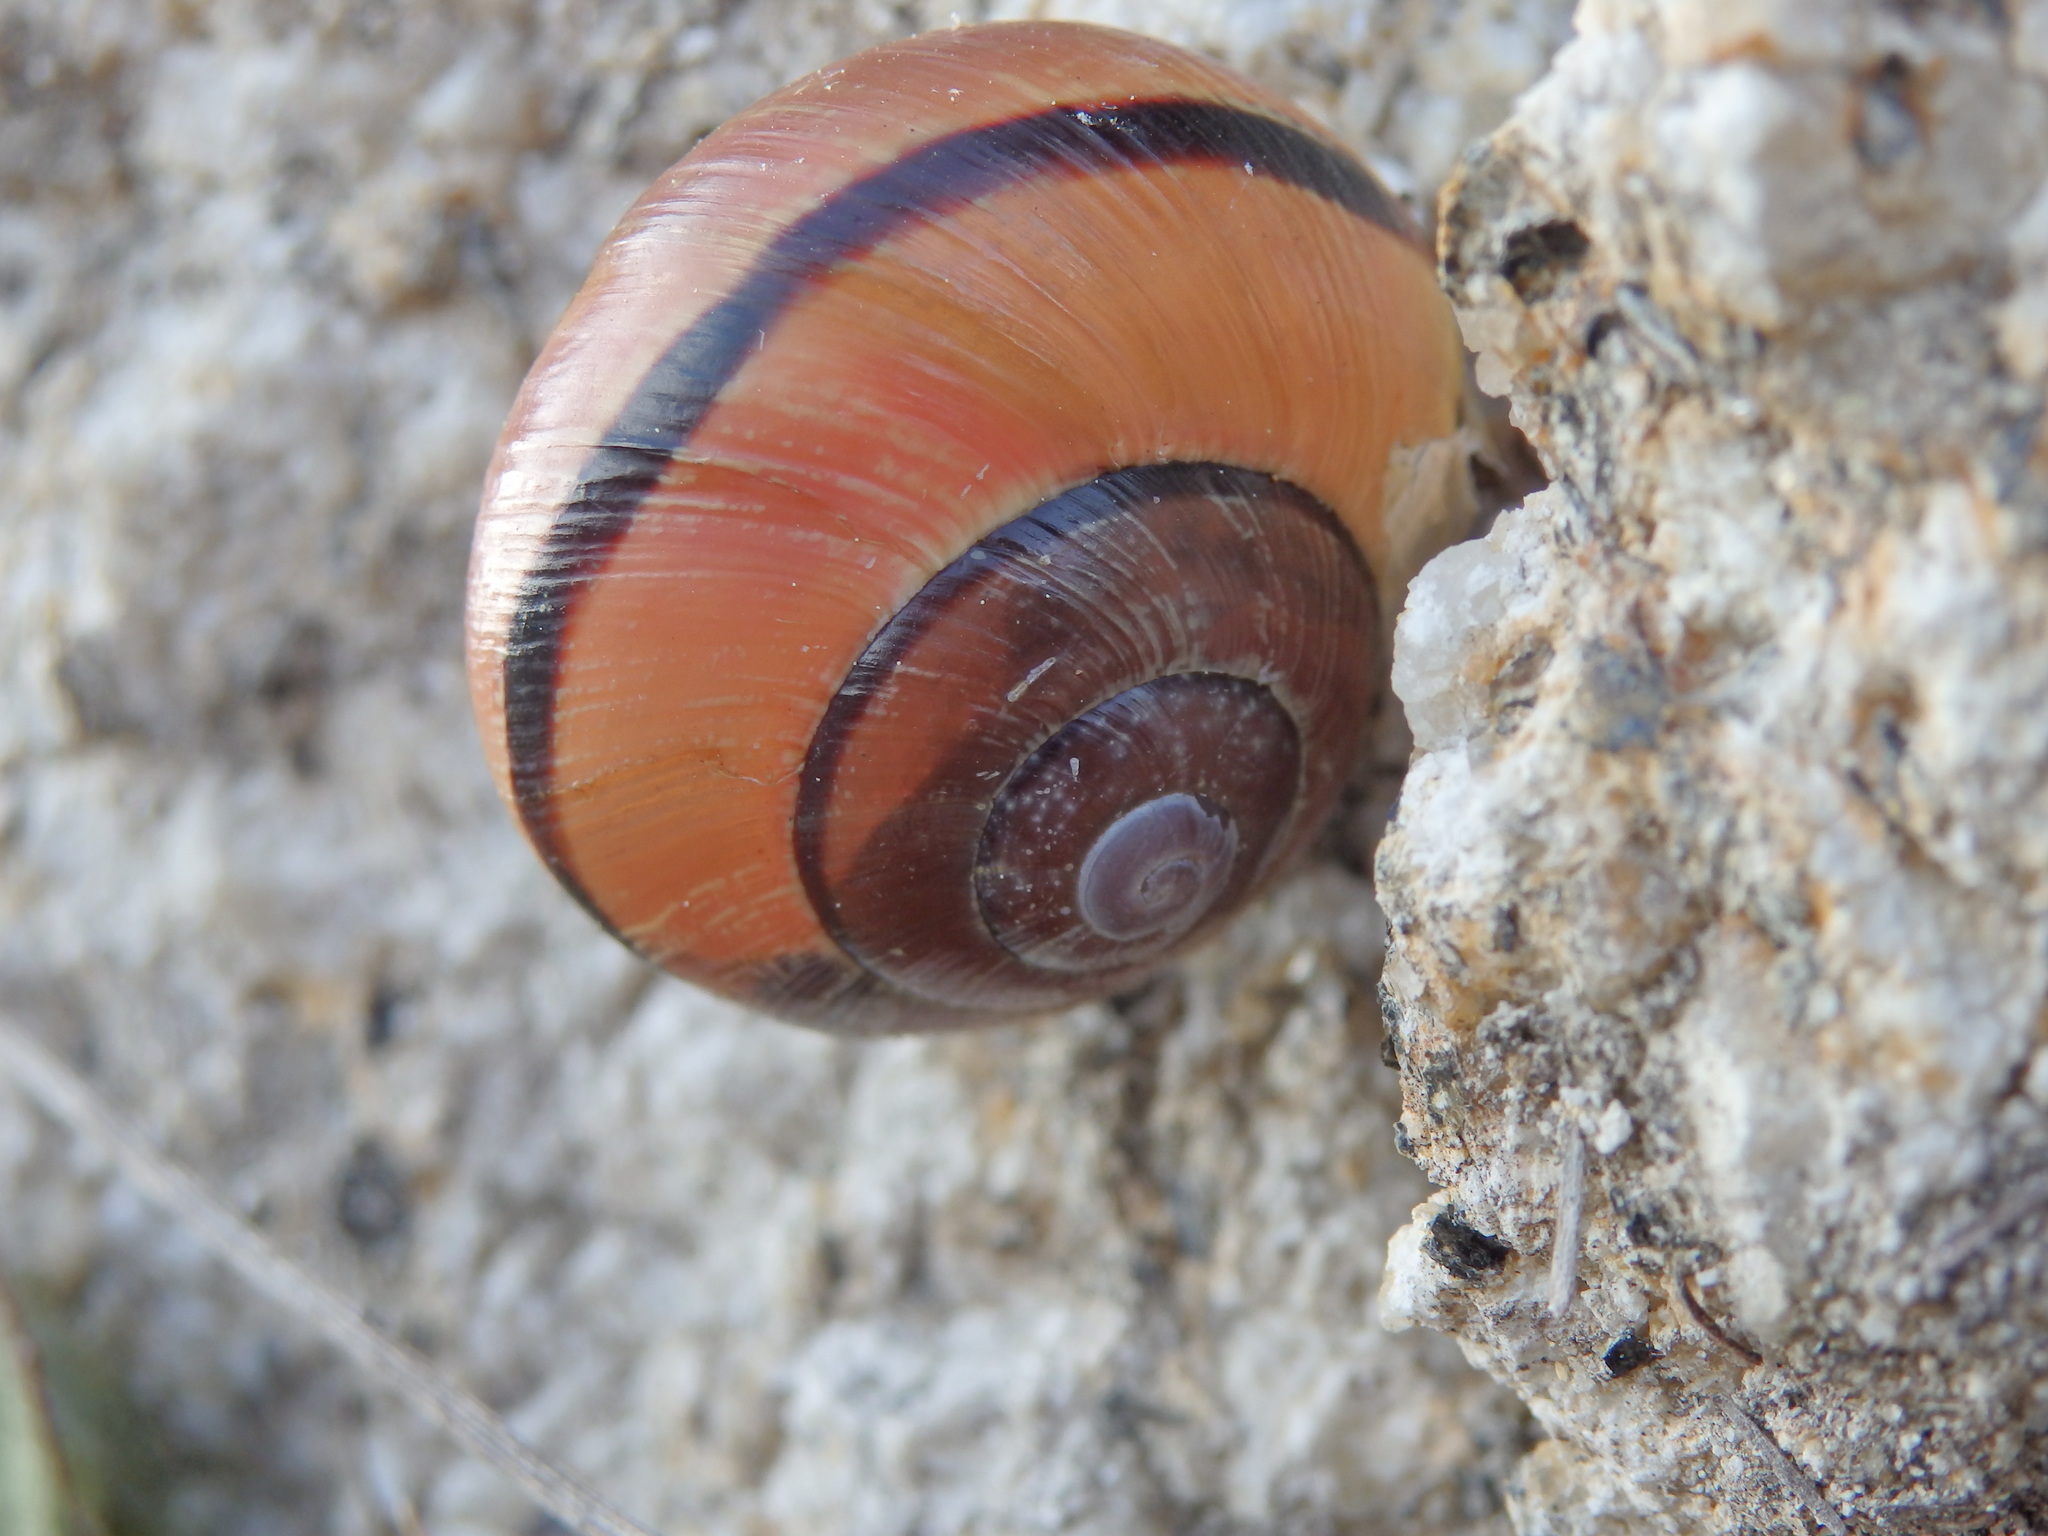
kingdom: Animalia
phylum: Mollusca
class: Gastropoda
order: Stylommatophora
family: Helicidae
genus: Cepaea
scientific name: Cepaea nemoralis
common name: Grovesnail
